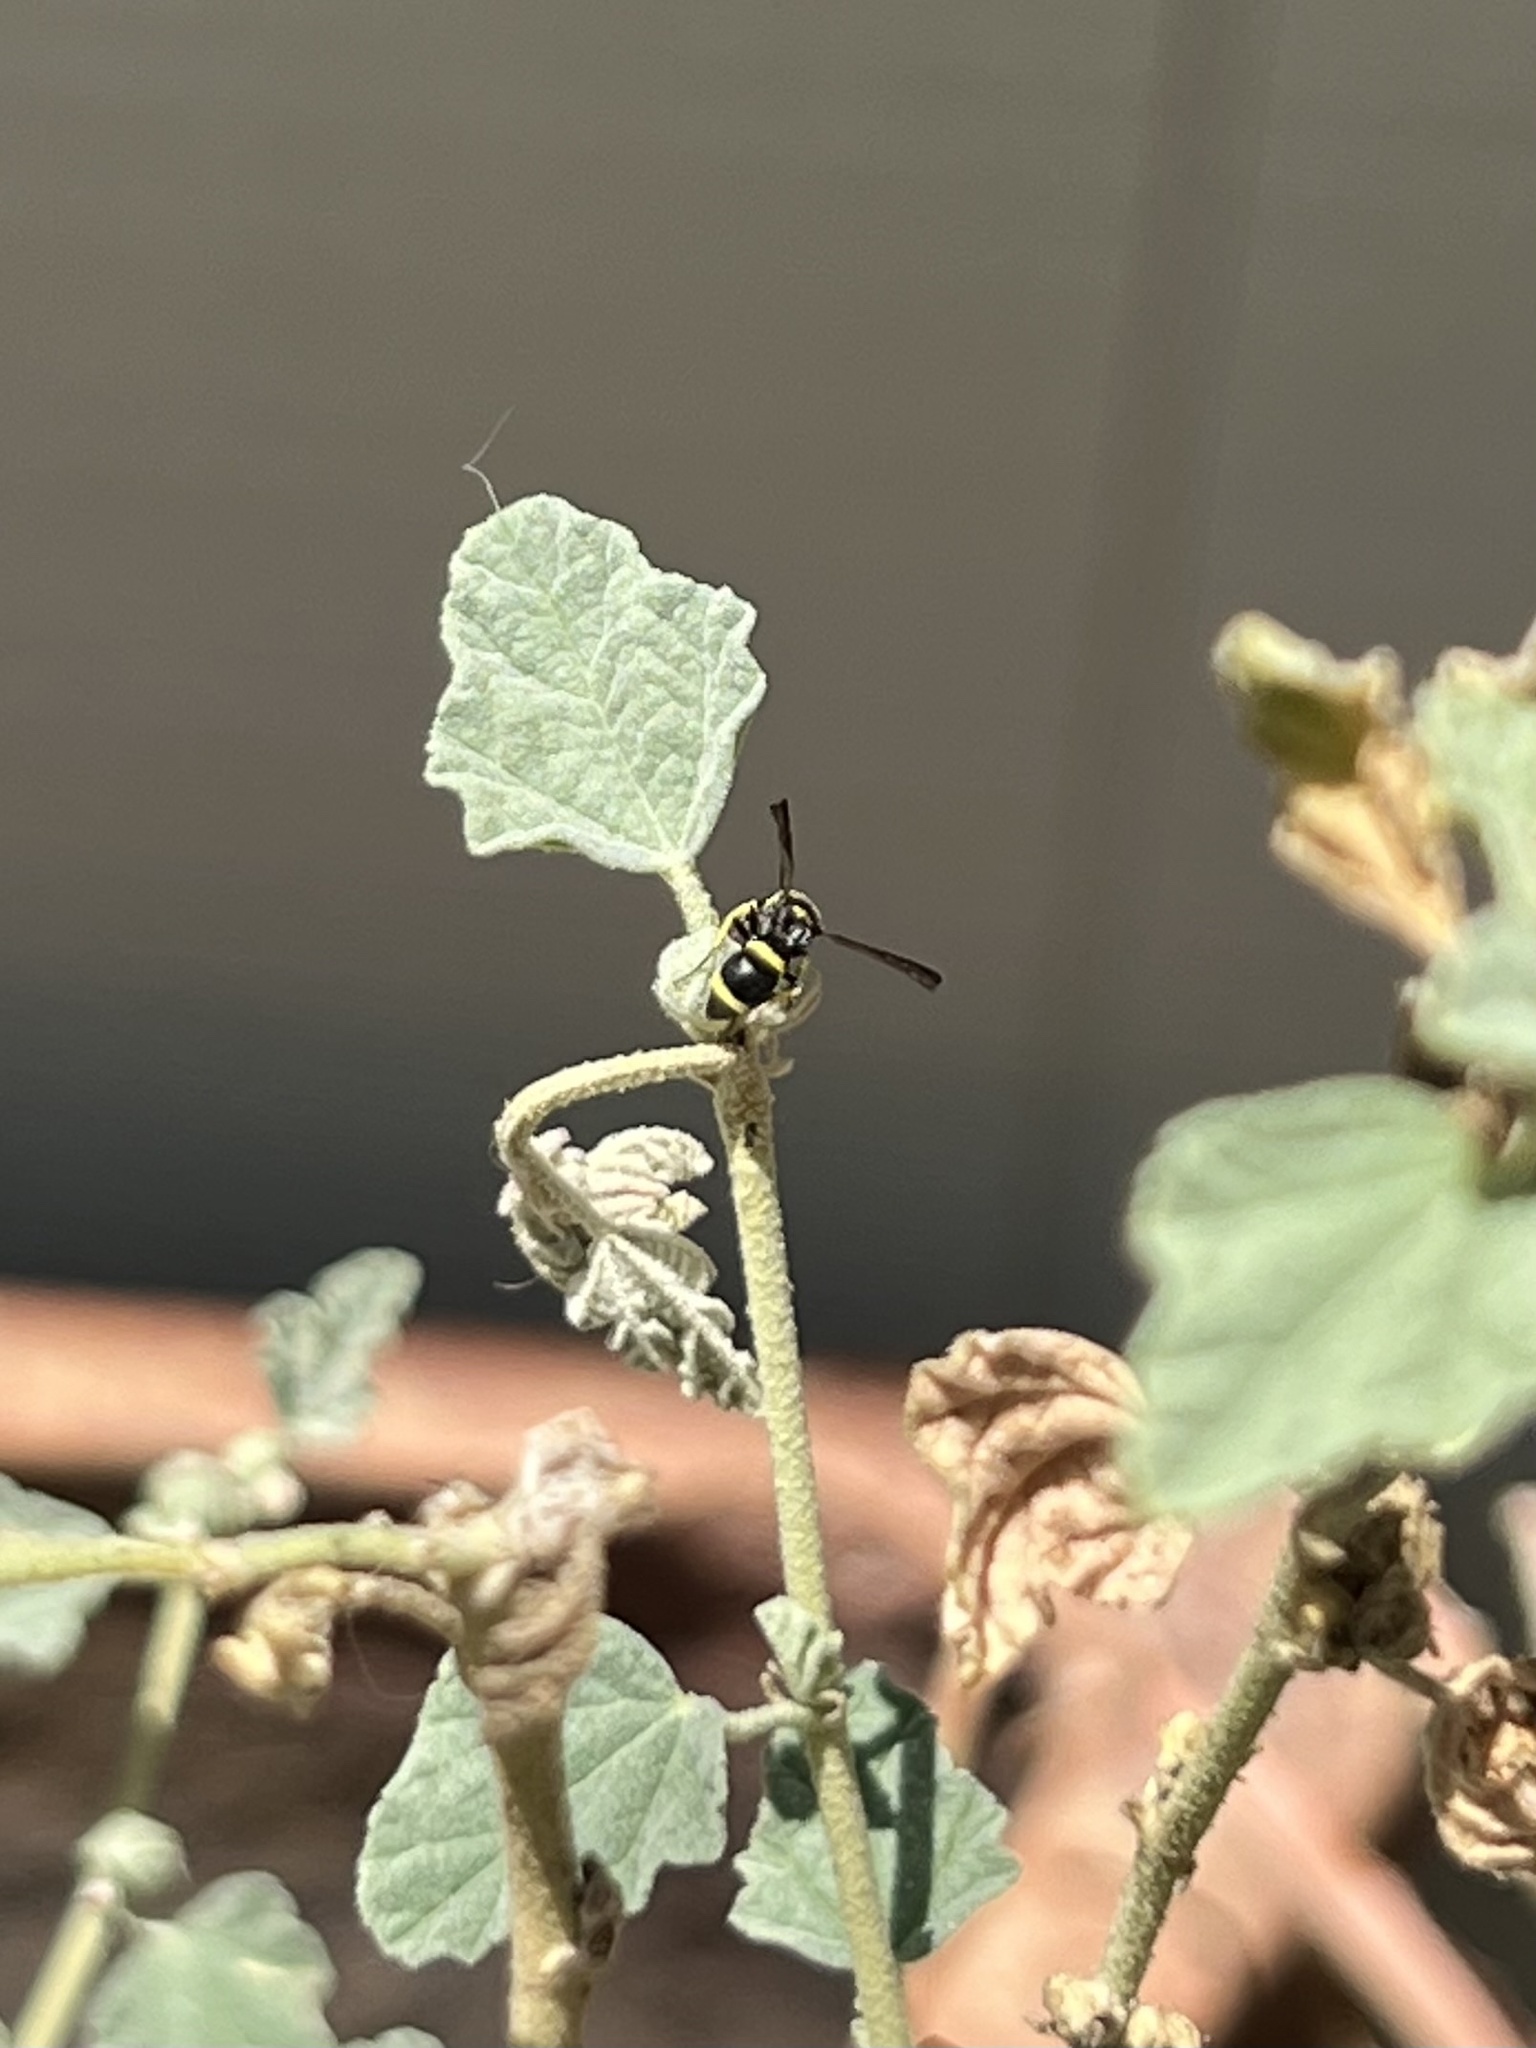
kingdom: Animalia
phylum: Arthropoda
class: Insecta
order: Hymenoptera
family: Eumenidae
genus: Parancistrocerus
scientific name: Parancistrocerus declivatus
